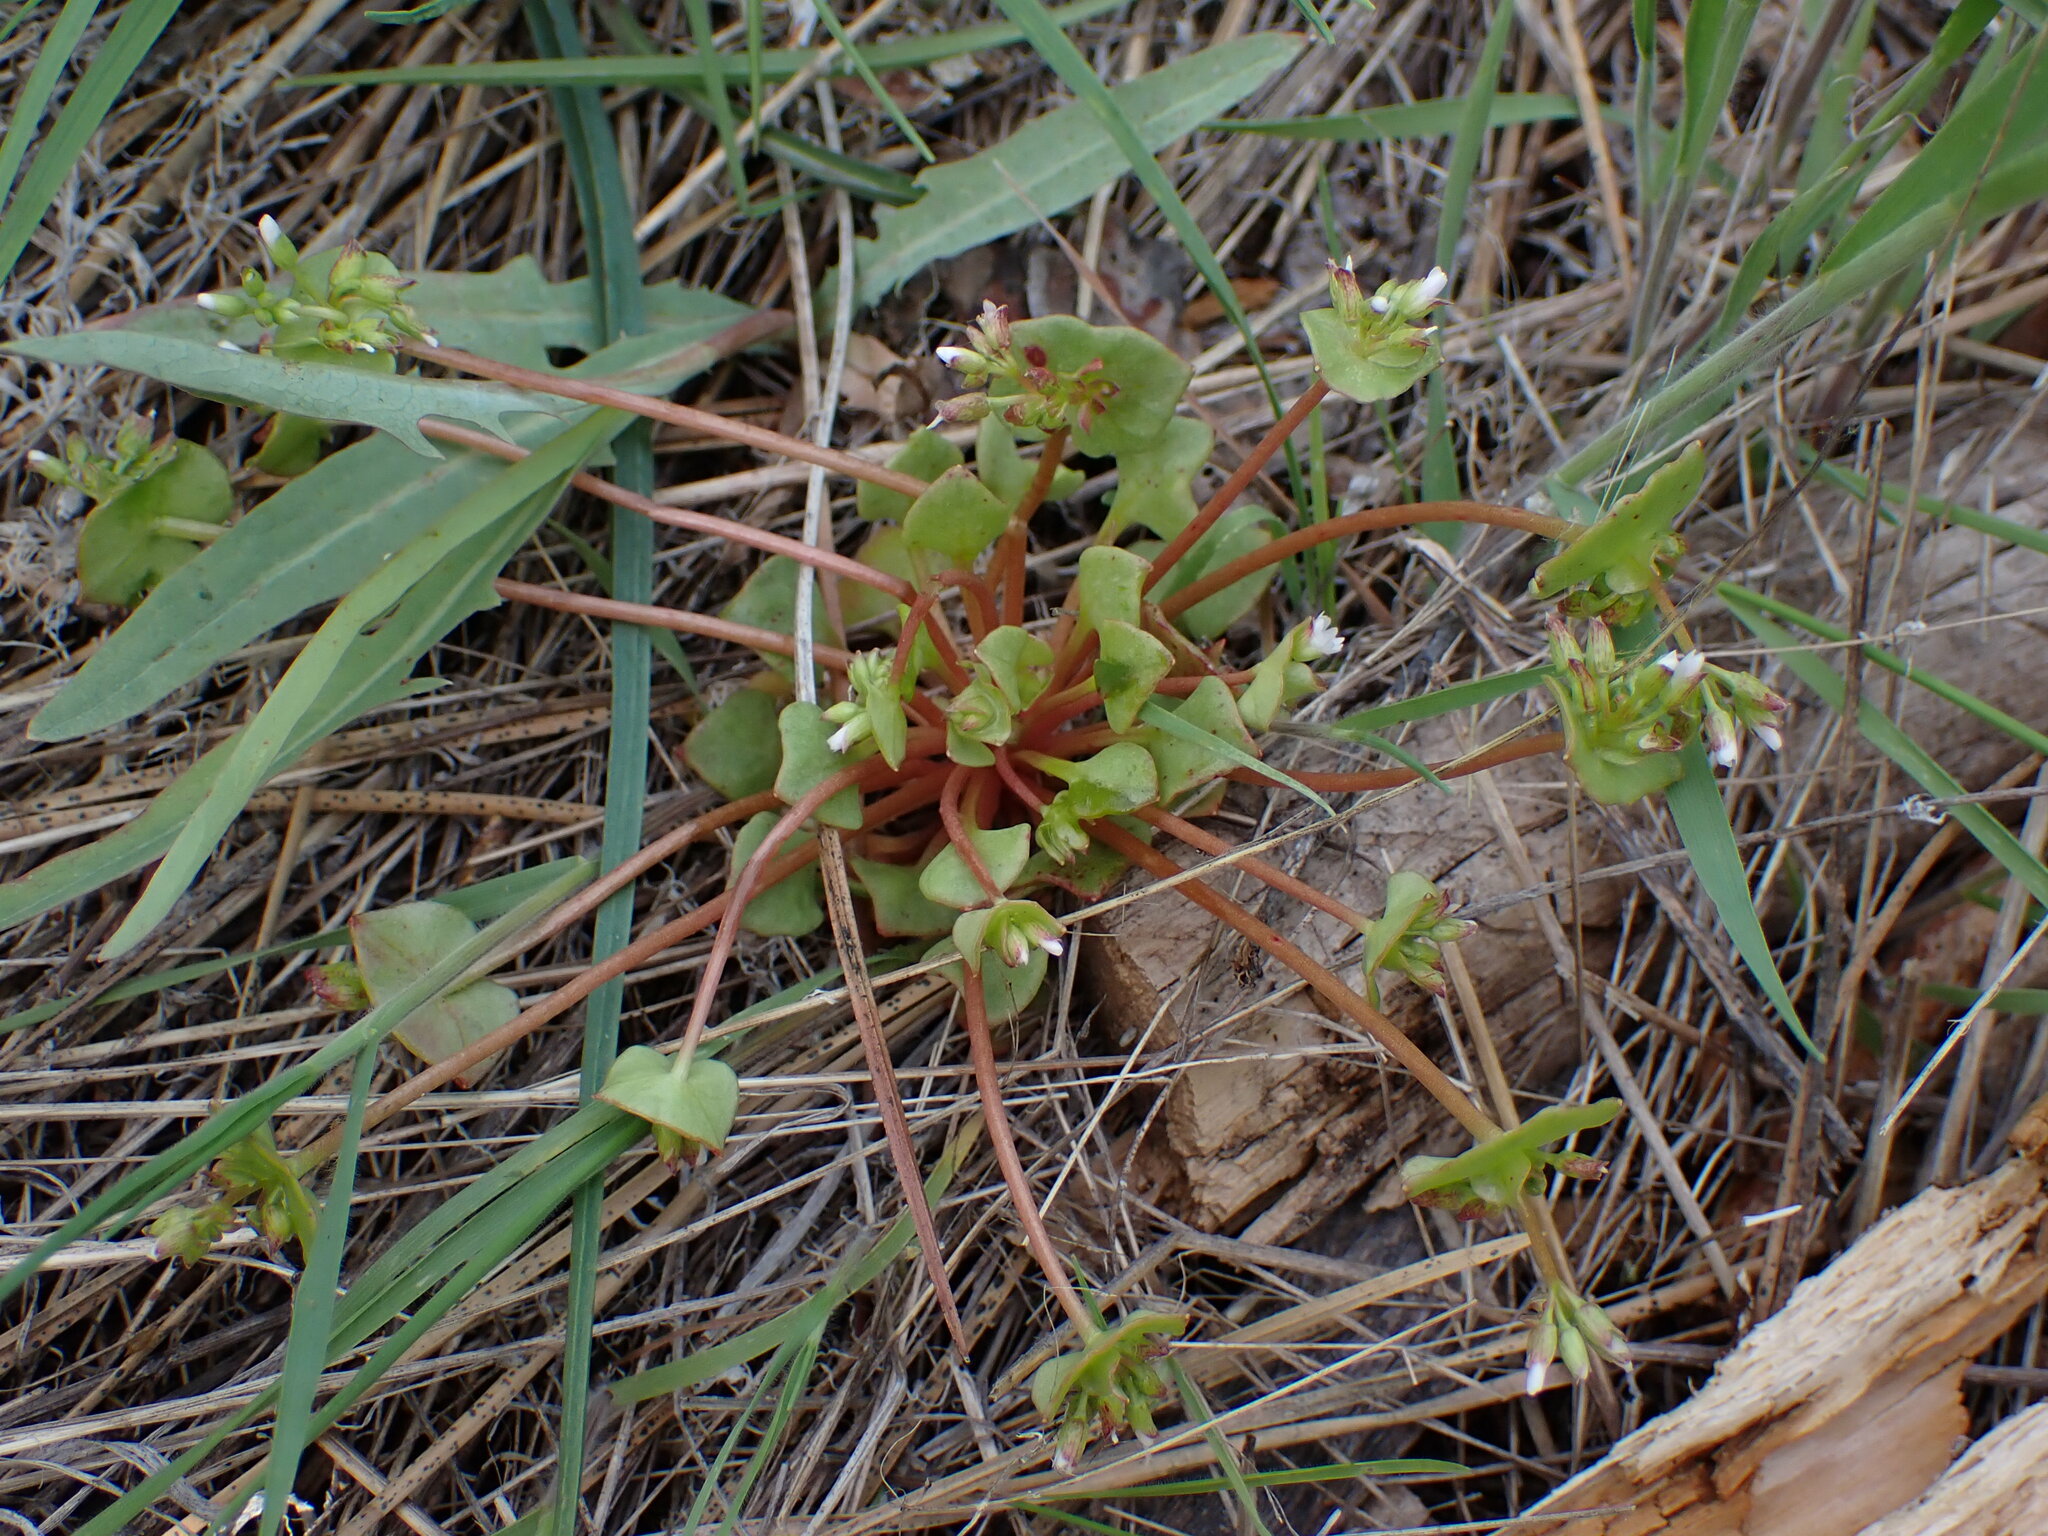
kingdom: Plantae
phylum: Tracheophyta
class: Magnoliopsida
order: Caryophyllales
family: Montiaceae
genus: Claytonia
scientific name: Claytonia rubra
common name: Erubescent miner's-lettuce
